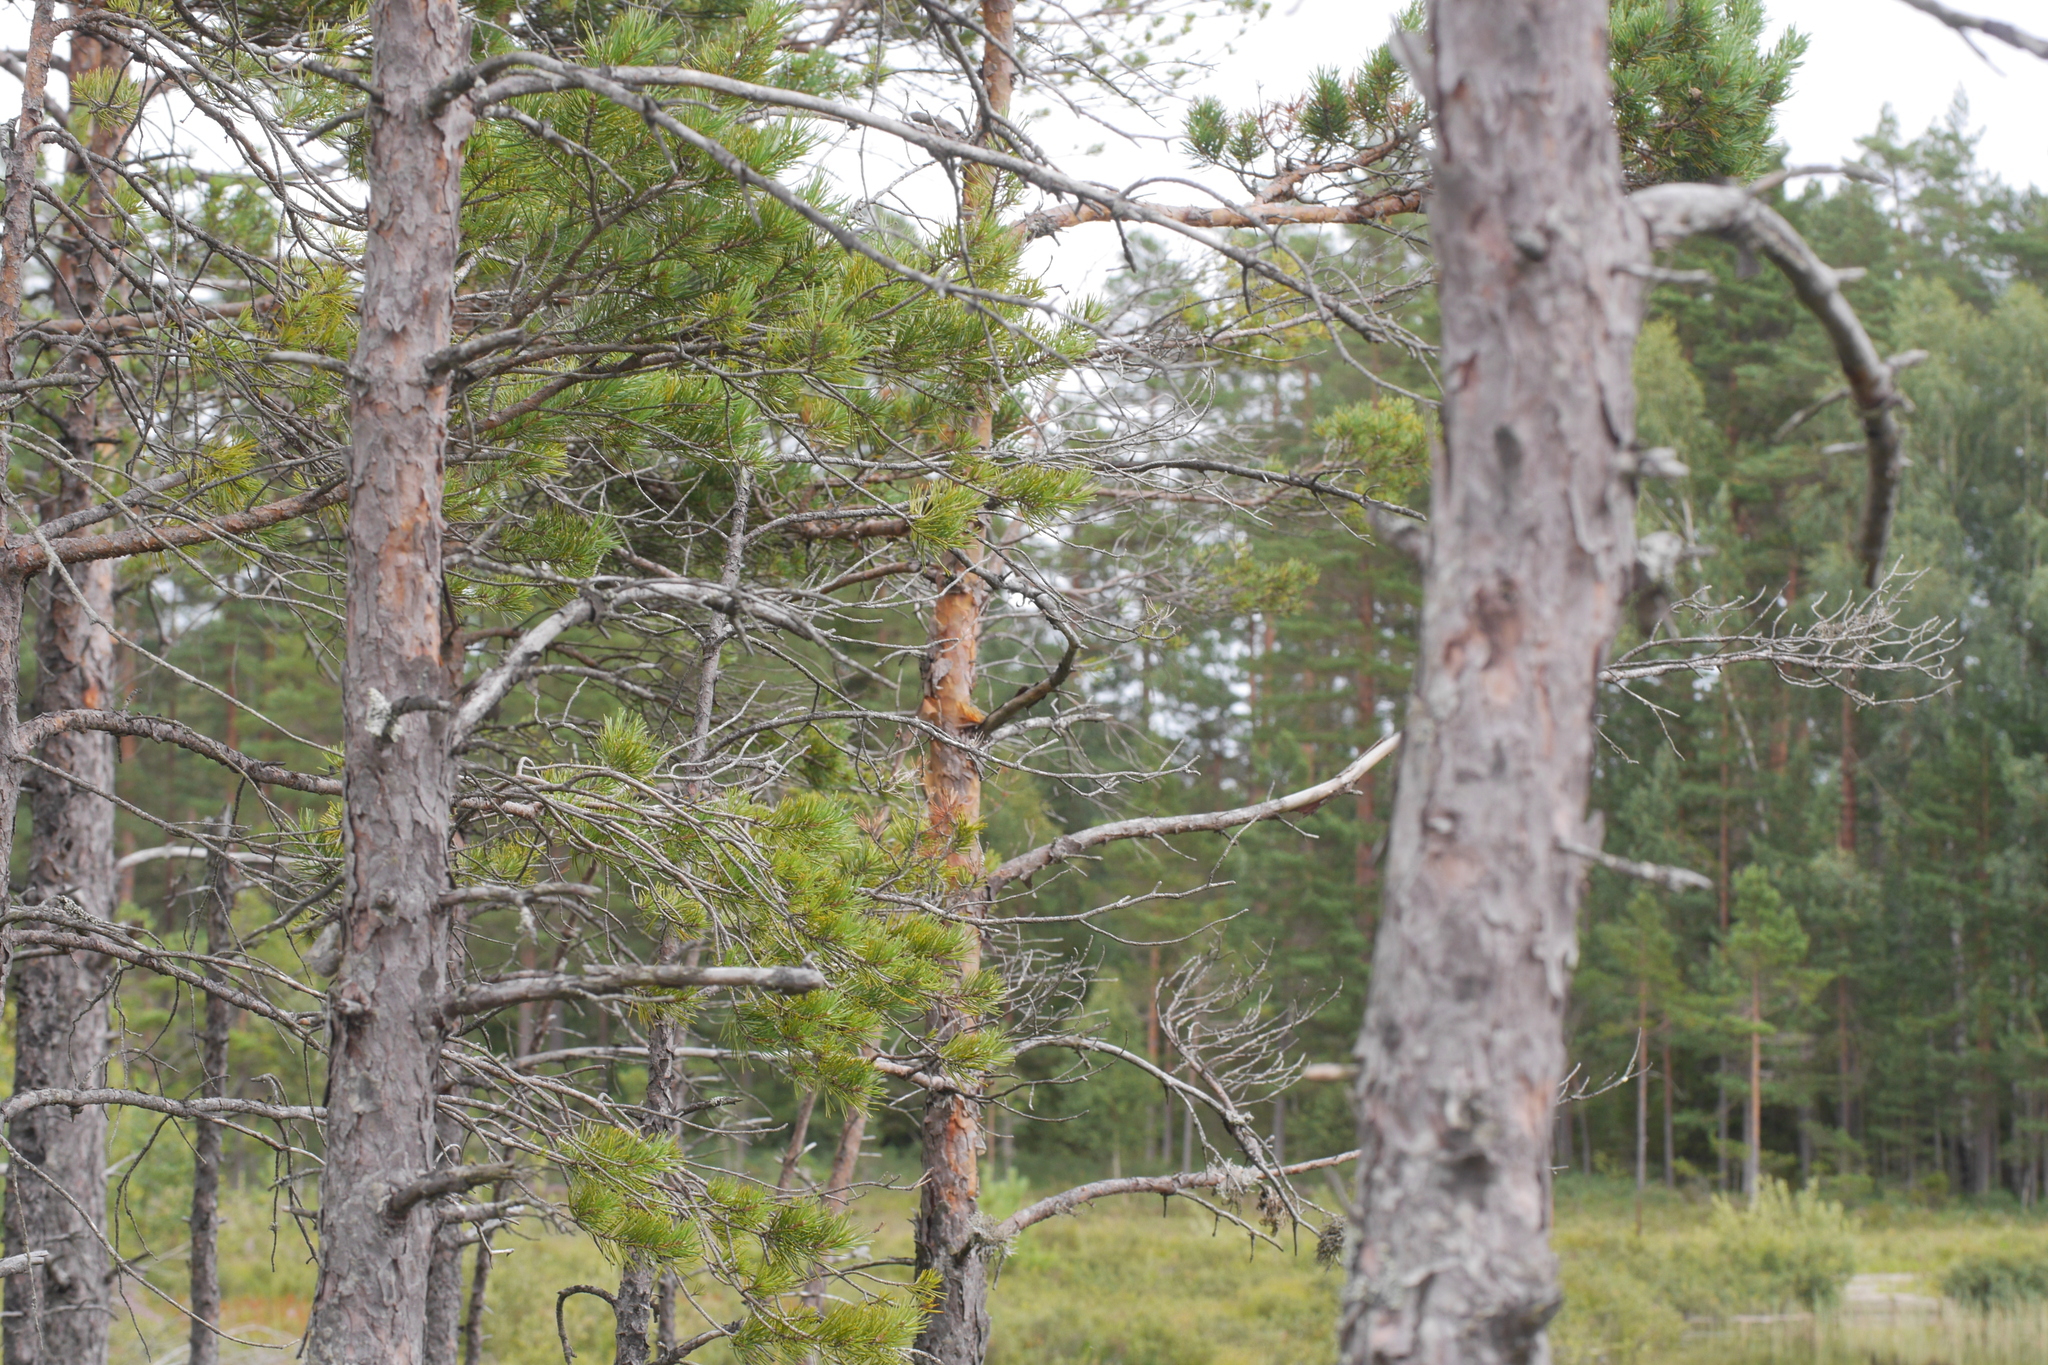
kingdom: Plantae
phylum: Tracheophyta
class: Pinopsida
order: Pinales
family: Pinaceae
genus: Pinus
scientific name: Pinus sylvestris
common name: Scots pine
